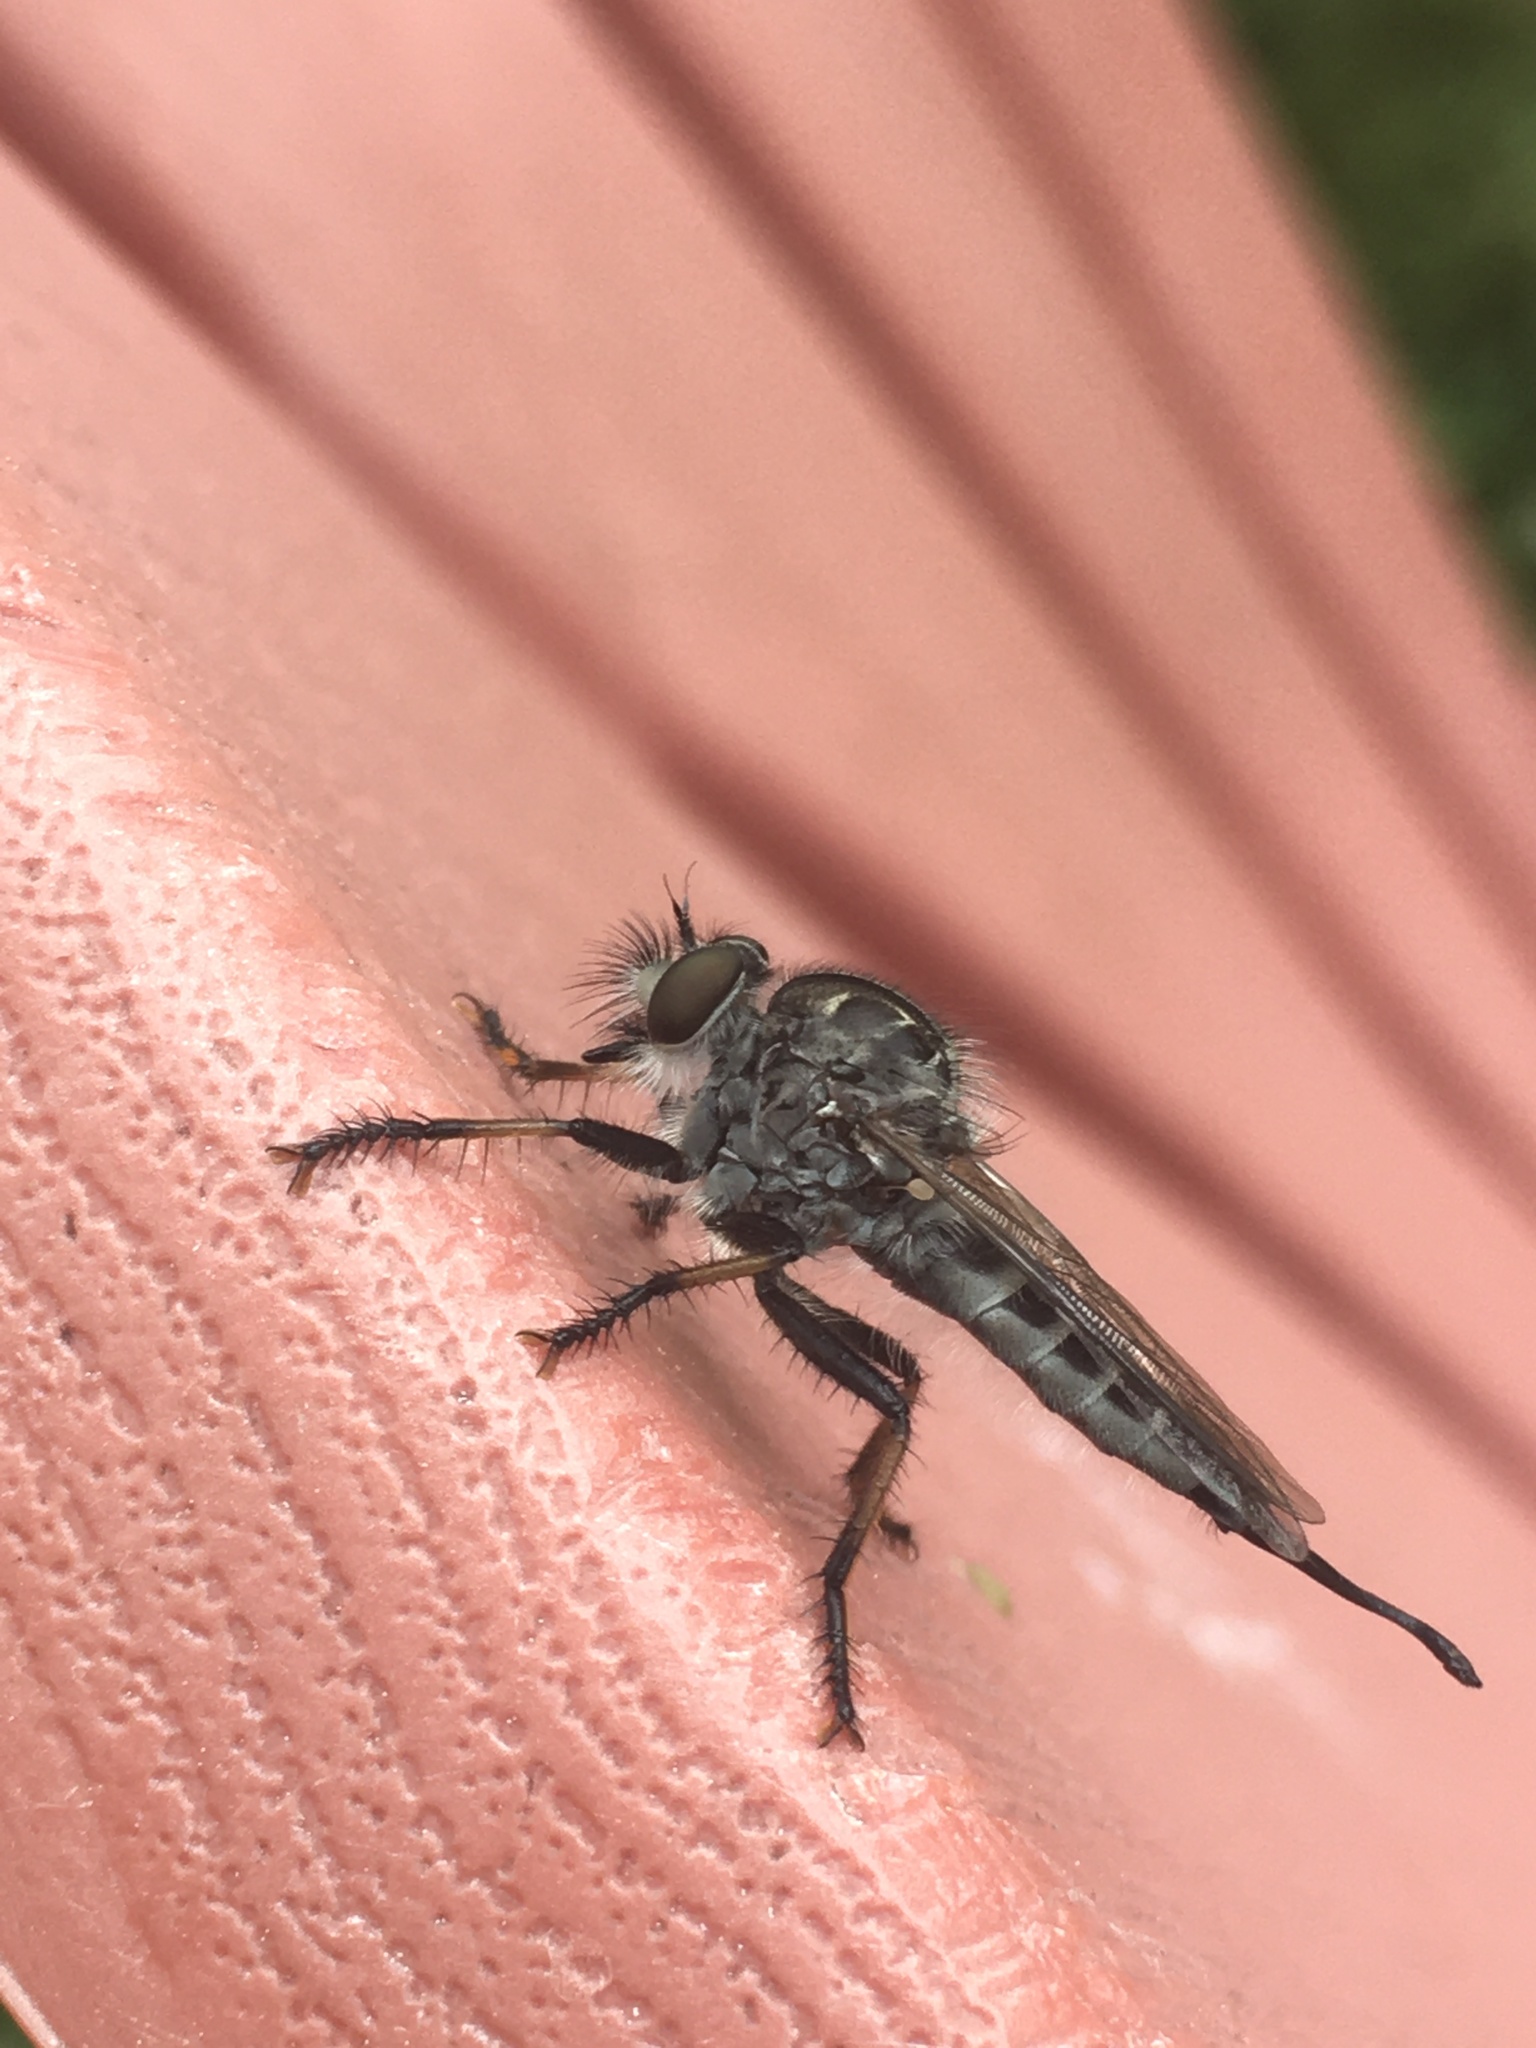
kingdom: Animalia
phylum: Arthropoda
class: Insecta
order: Diptera
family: Asilidae
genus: Efferia
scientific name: Efferia aestuans
